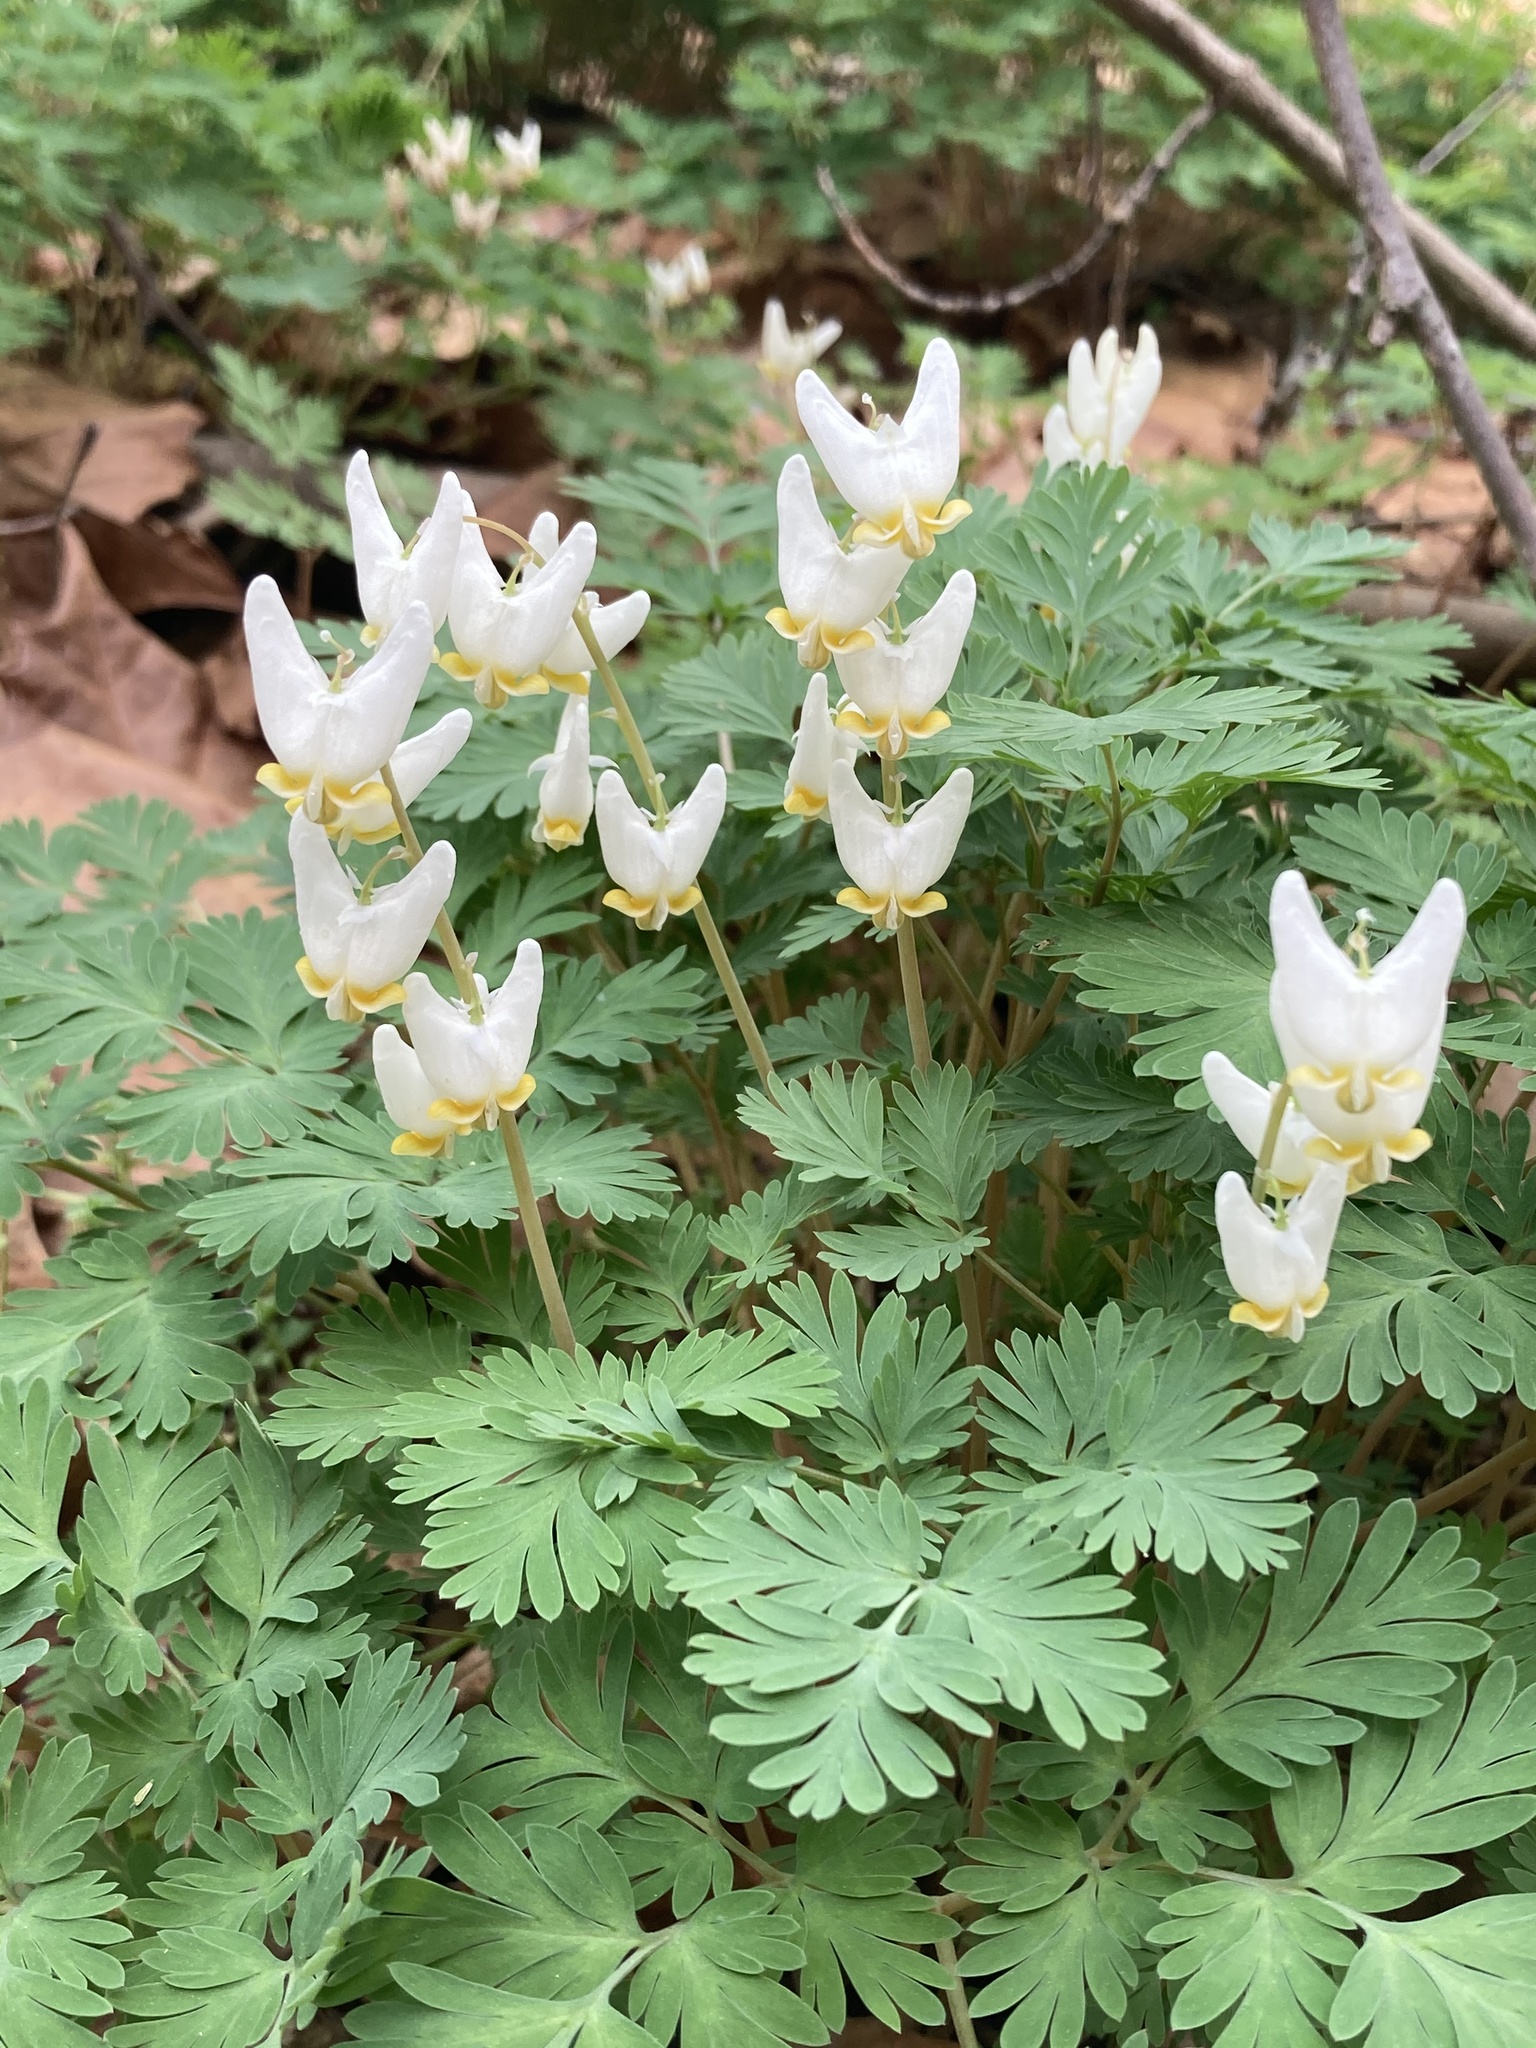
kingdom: Plantae
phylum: Tracheophyta
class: Magnoliopsida
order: Ranunculales
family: Papaveraceae
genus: Dicentra
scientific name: Dicentra cucullaria
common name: Dutchman's breeches
